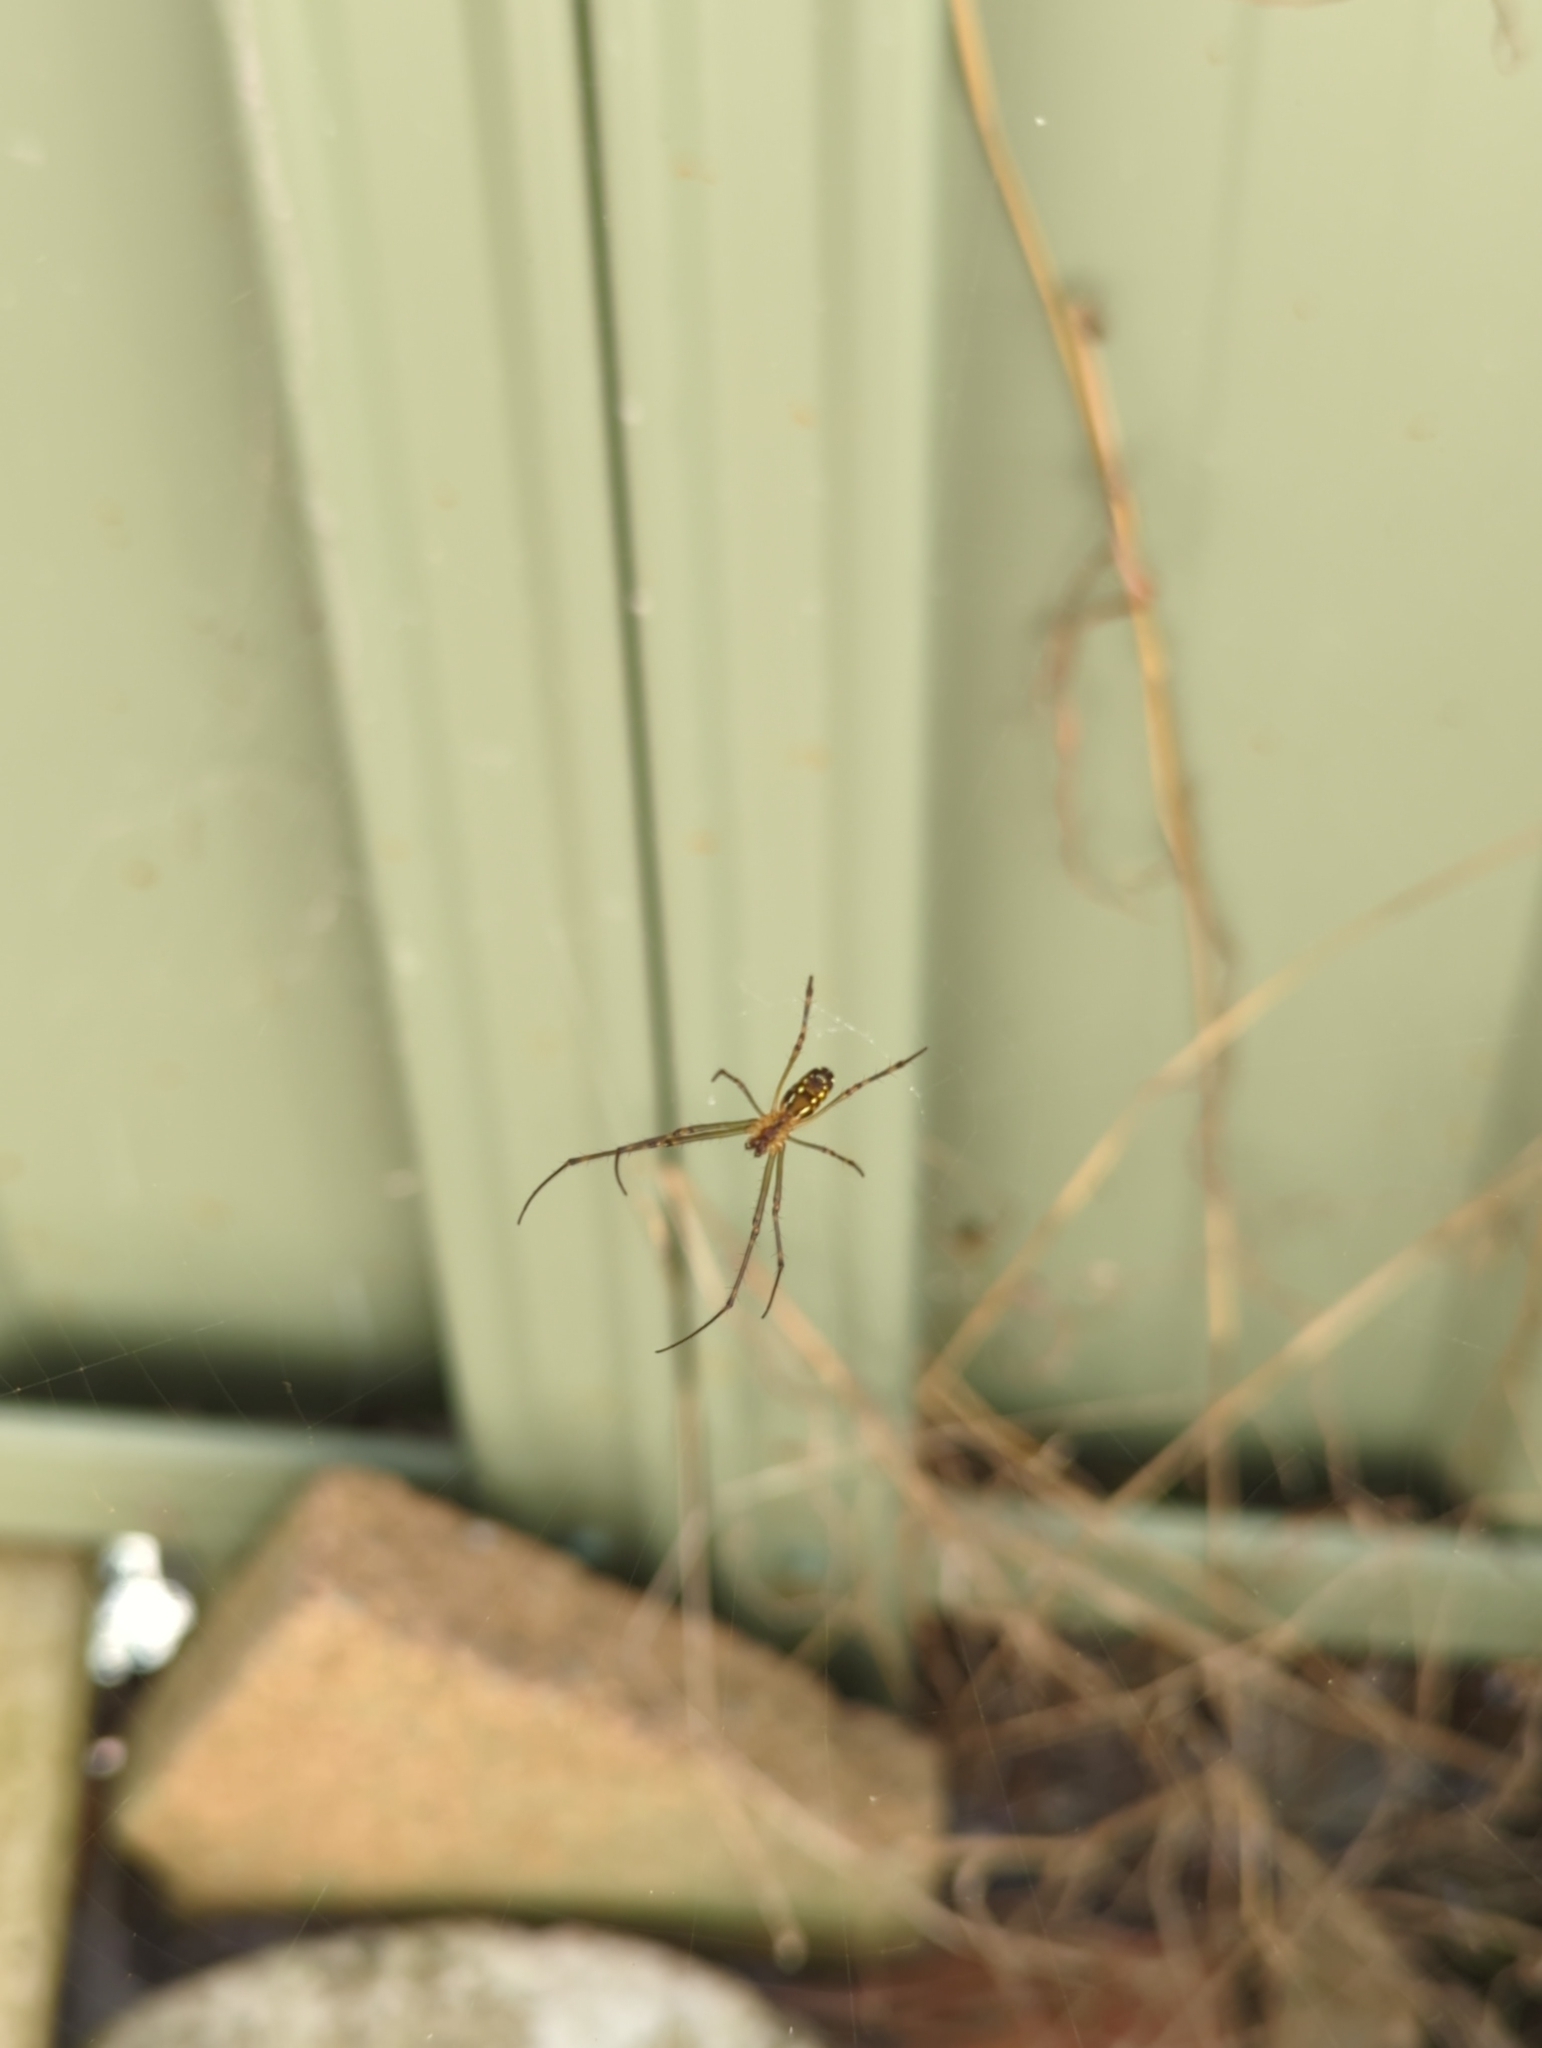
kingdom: Animalia
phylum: Arthropoda
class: Arachnida
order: Araneae
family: Tetragnathidae
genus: Leucauge
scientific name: Leucauge dromedaria
